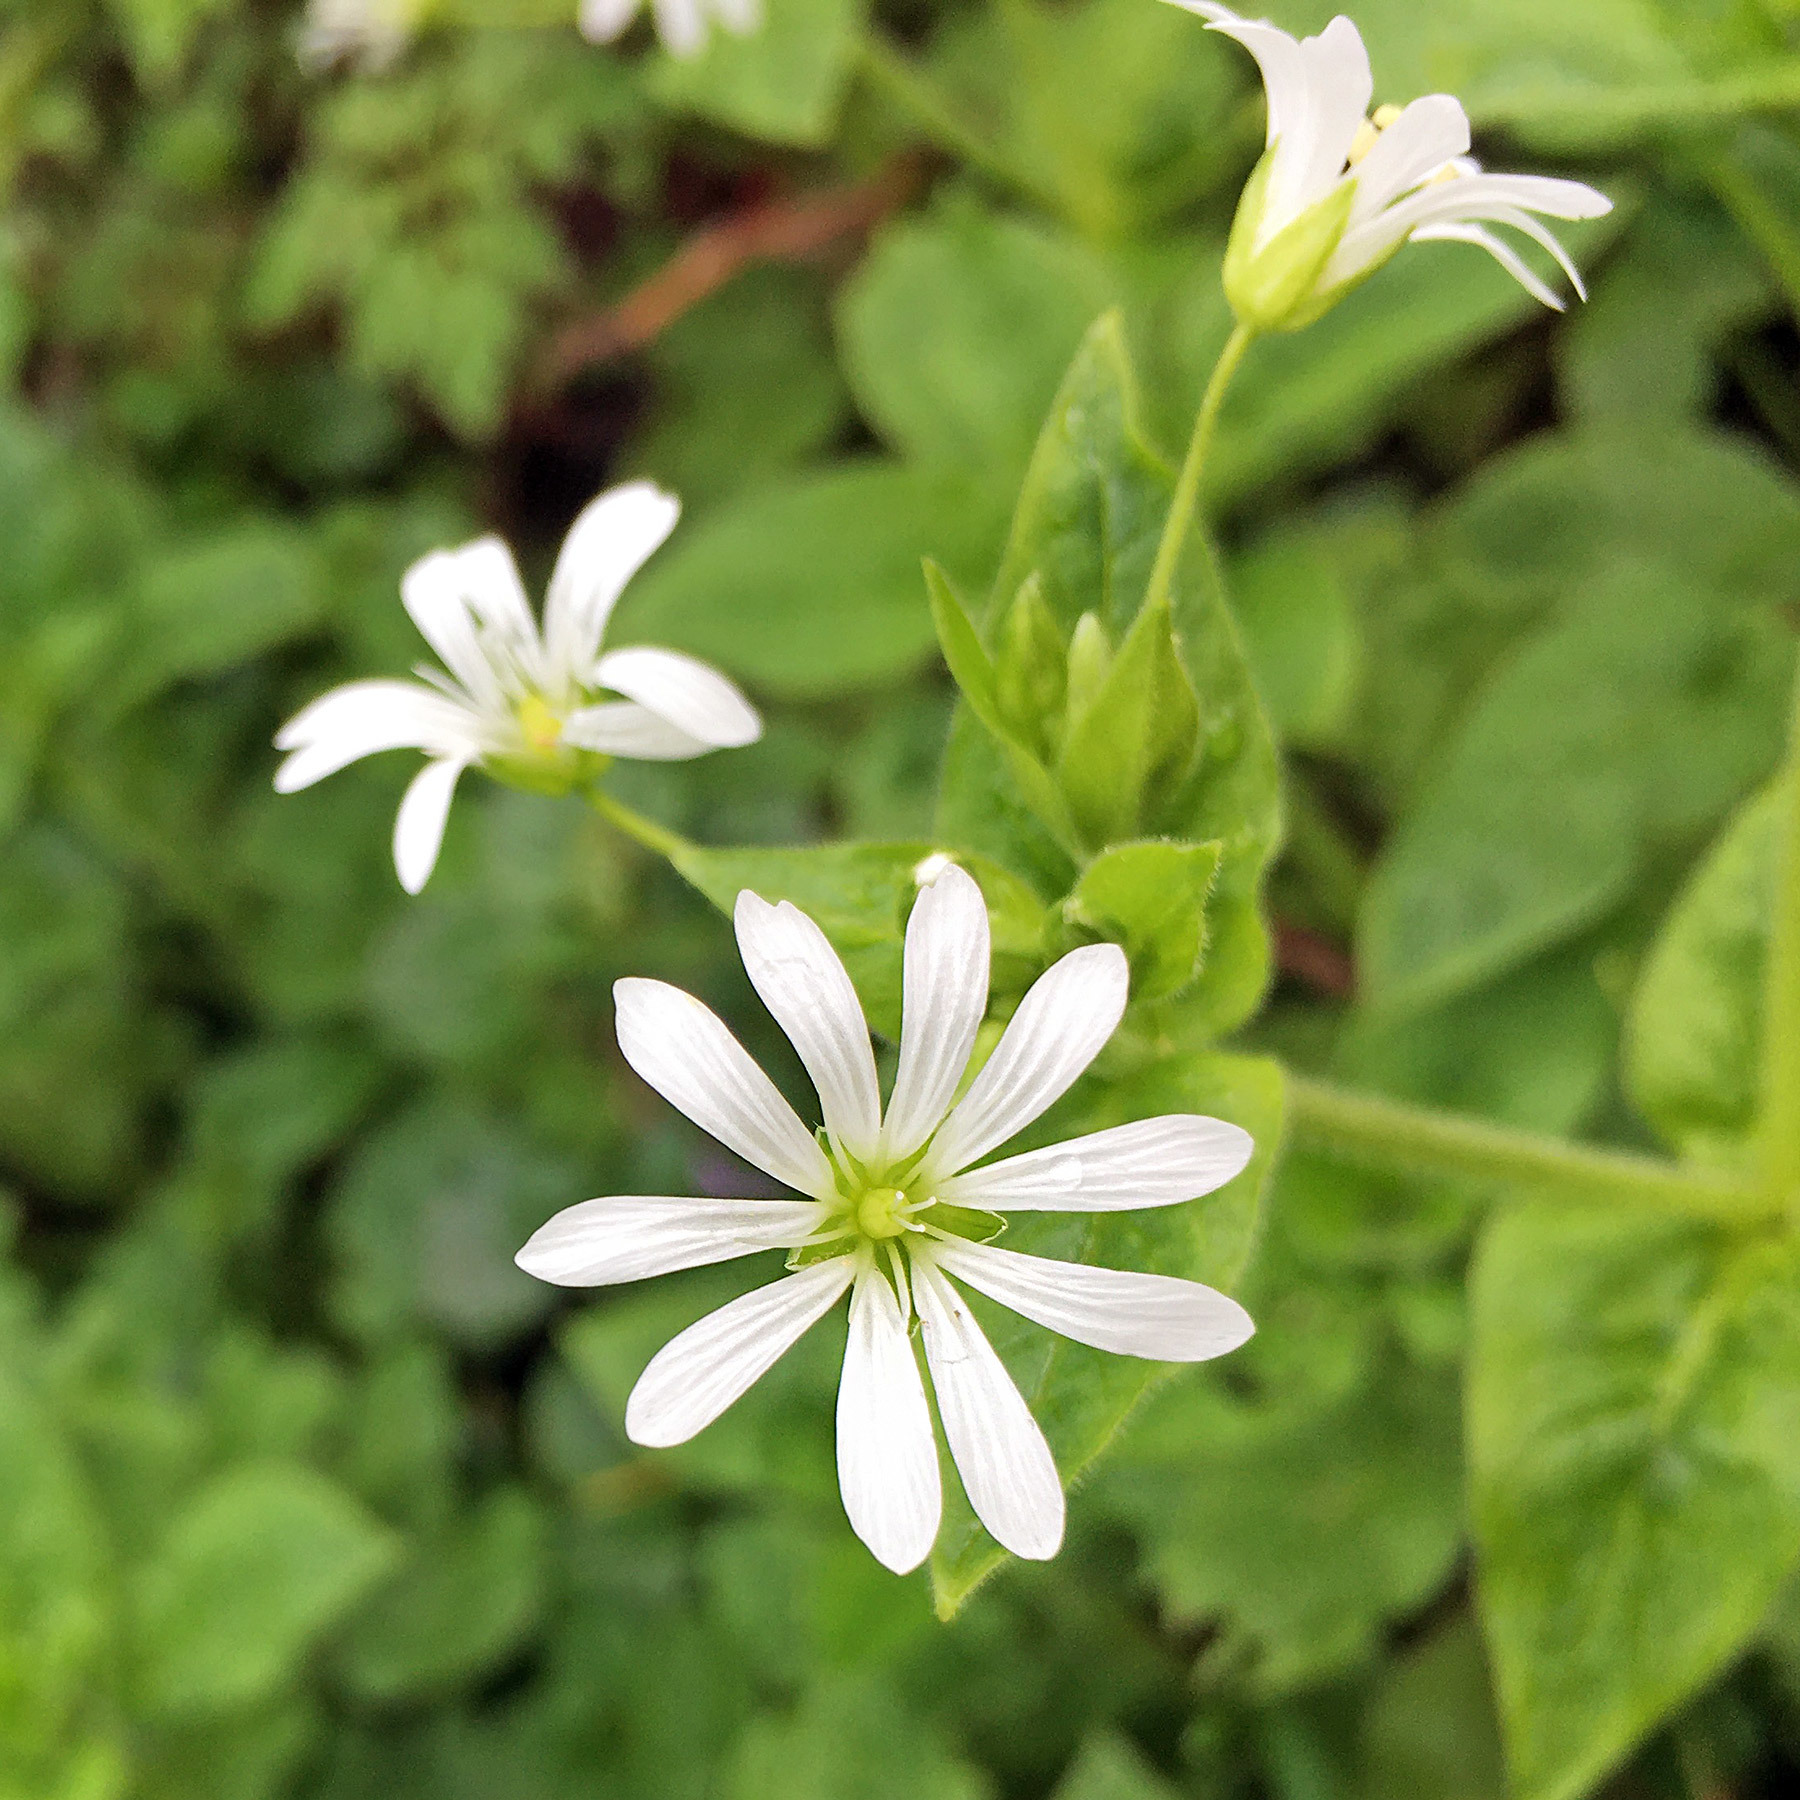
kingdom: Plantae
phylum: Tracheophyta
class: Magnoliopsida
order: Caryophyllales
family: Caryophyllaceae
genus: Stellaria
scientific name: Stellaria nemorum
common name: Wood stitchwort
